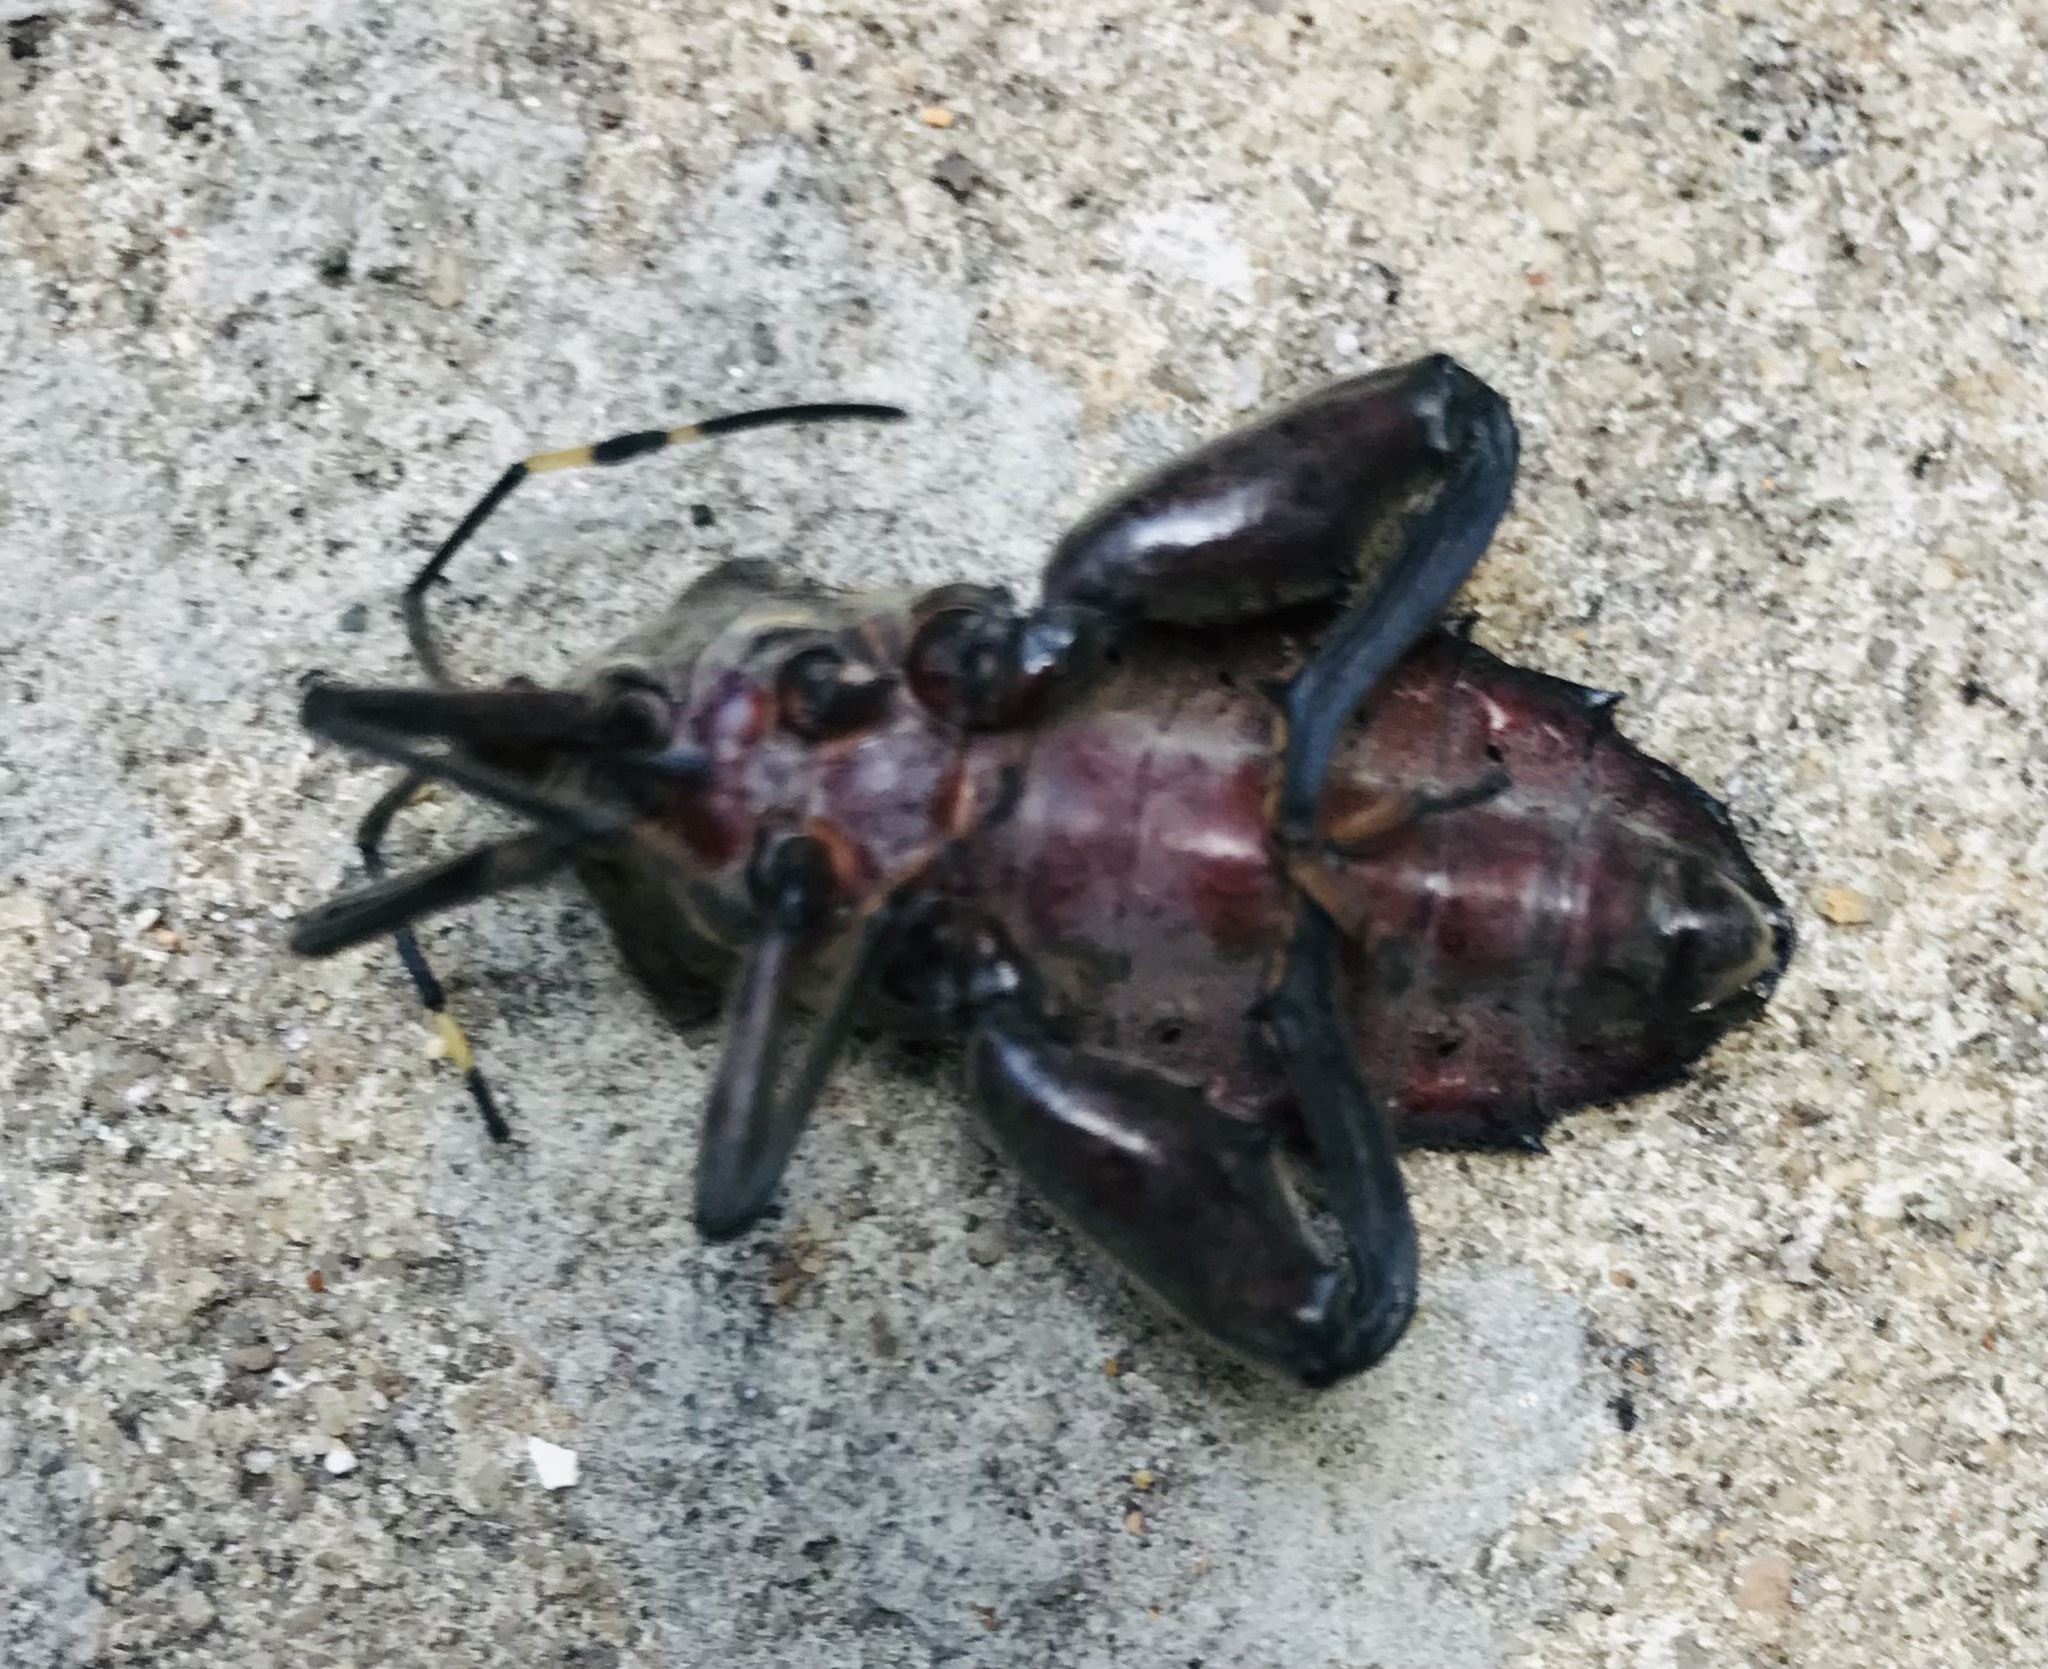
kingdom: Animalia
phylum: Arthropoda
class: Insecta
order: Hemiptera
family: Coreidae
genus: Pachylis
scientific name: Pachylis laticornis
